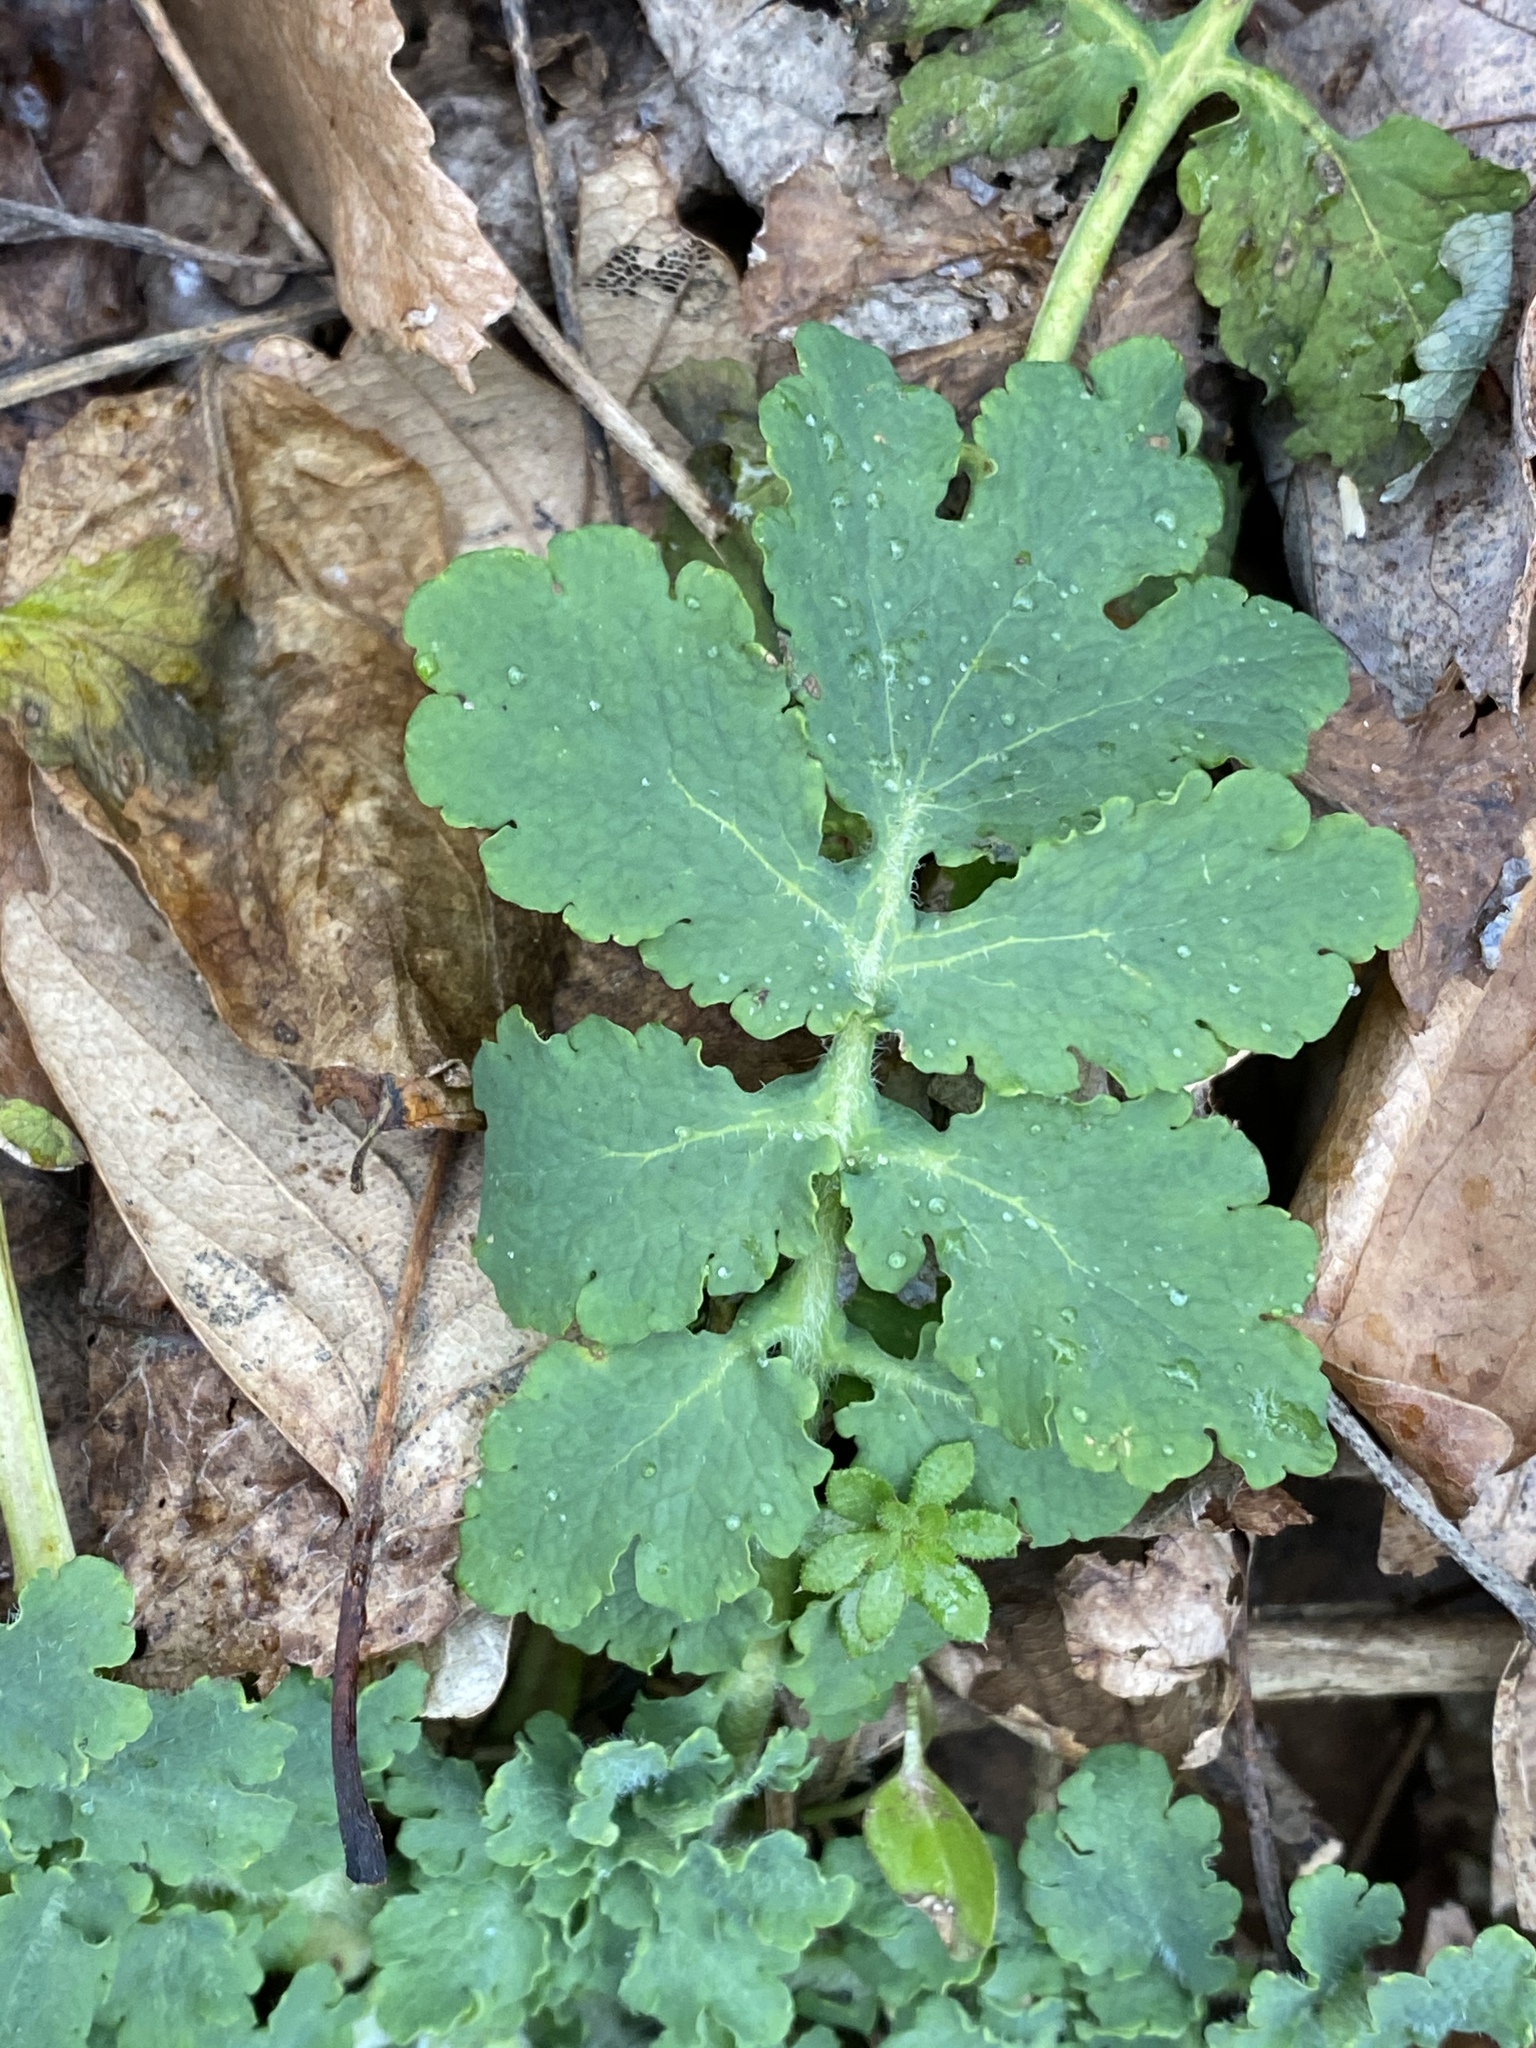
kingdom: Plantae
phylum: Tracheophyta
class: Magnoliopsida
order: Ranunculales
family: Papaveraceae
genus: Chelidonium
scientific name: Chelidonium majus
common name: Greater celandine
